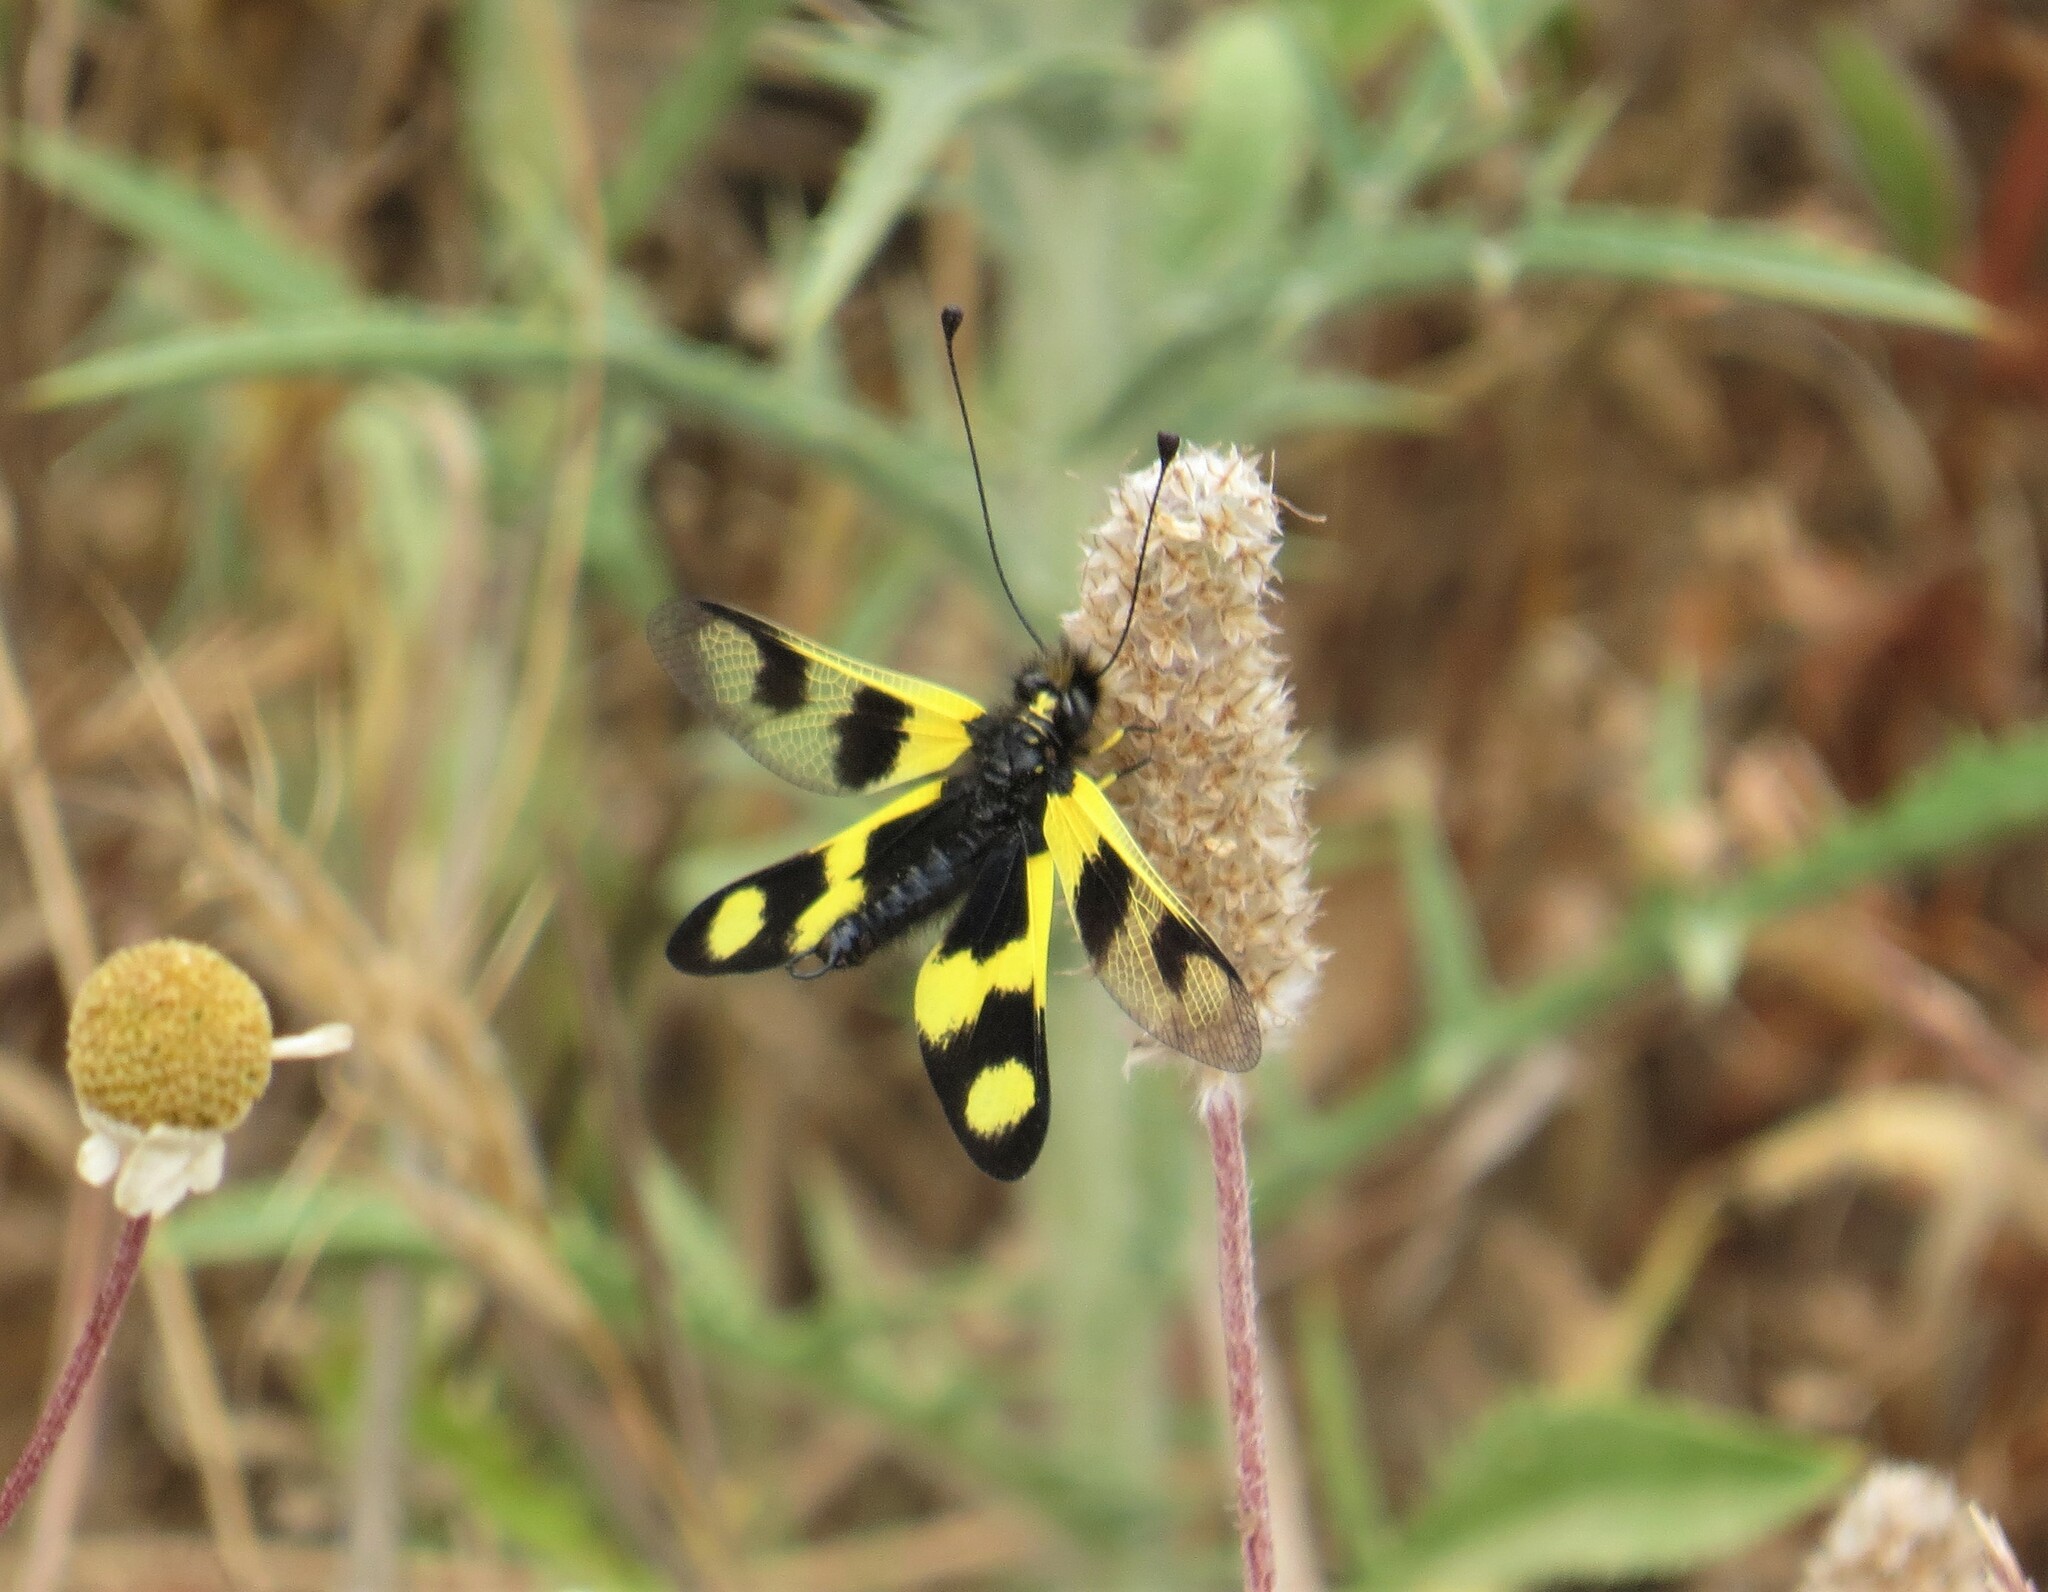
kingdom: Animalia
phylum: Arthropoda
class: Insecta
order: Neuroptera
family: Ascalaphidae
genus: Libelloides
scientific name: Libelloides macaronius
